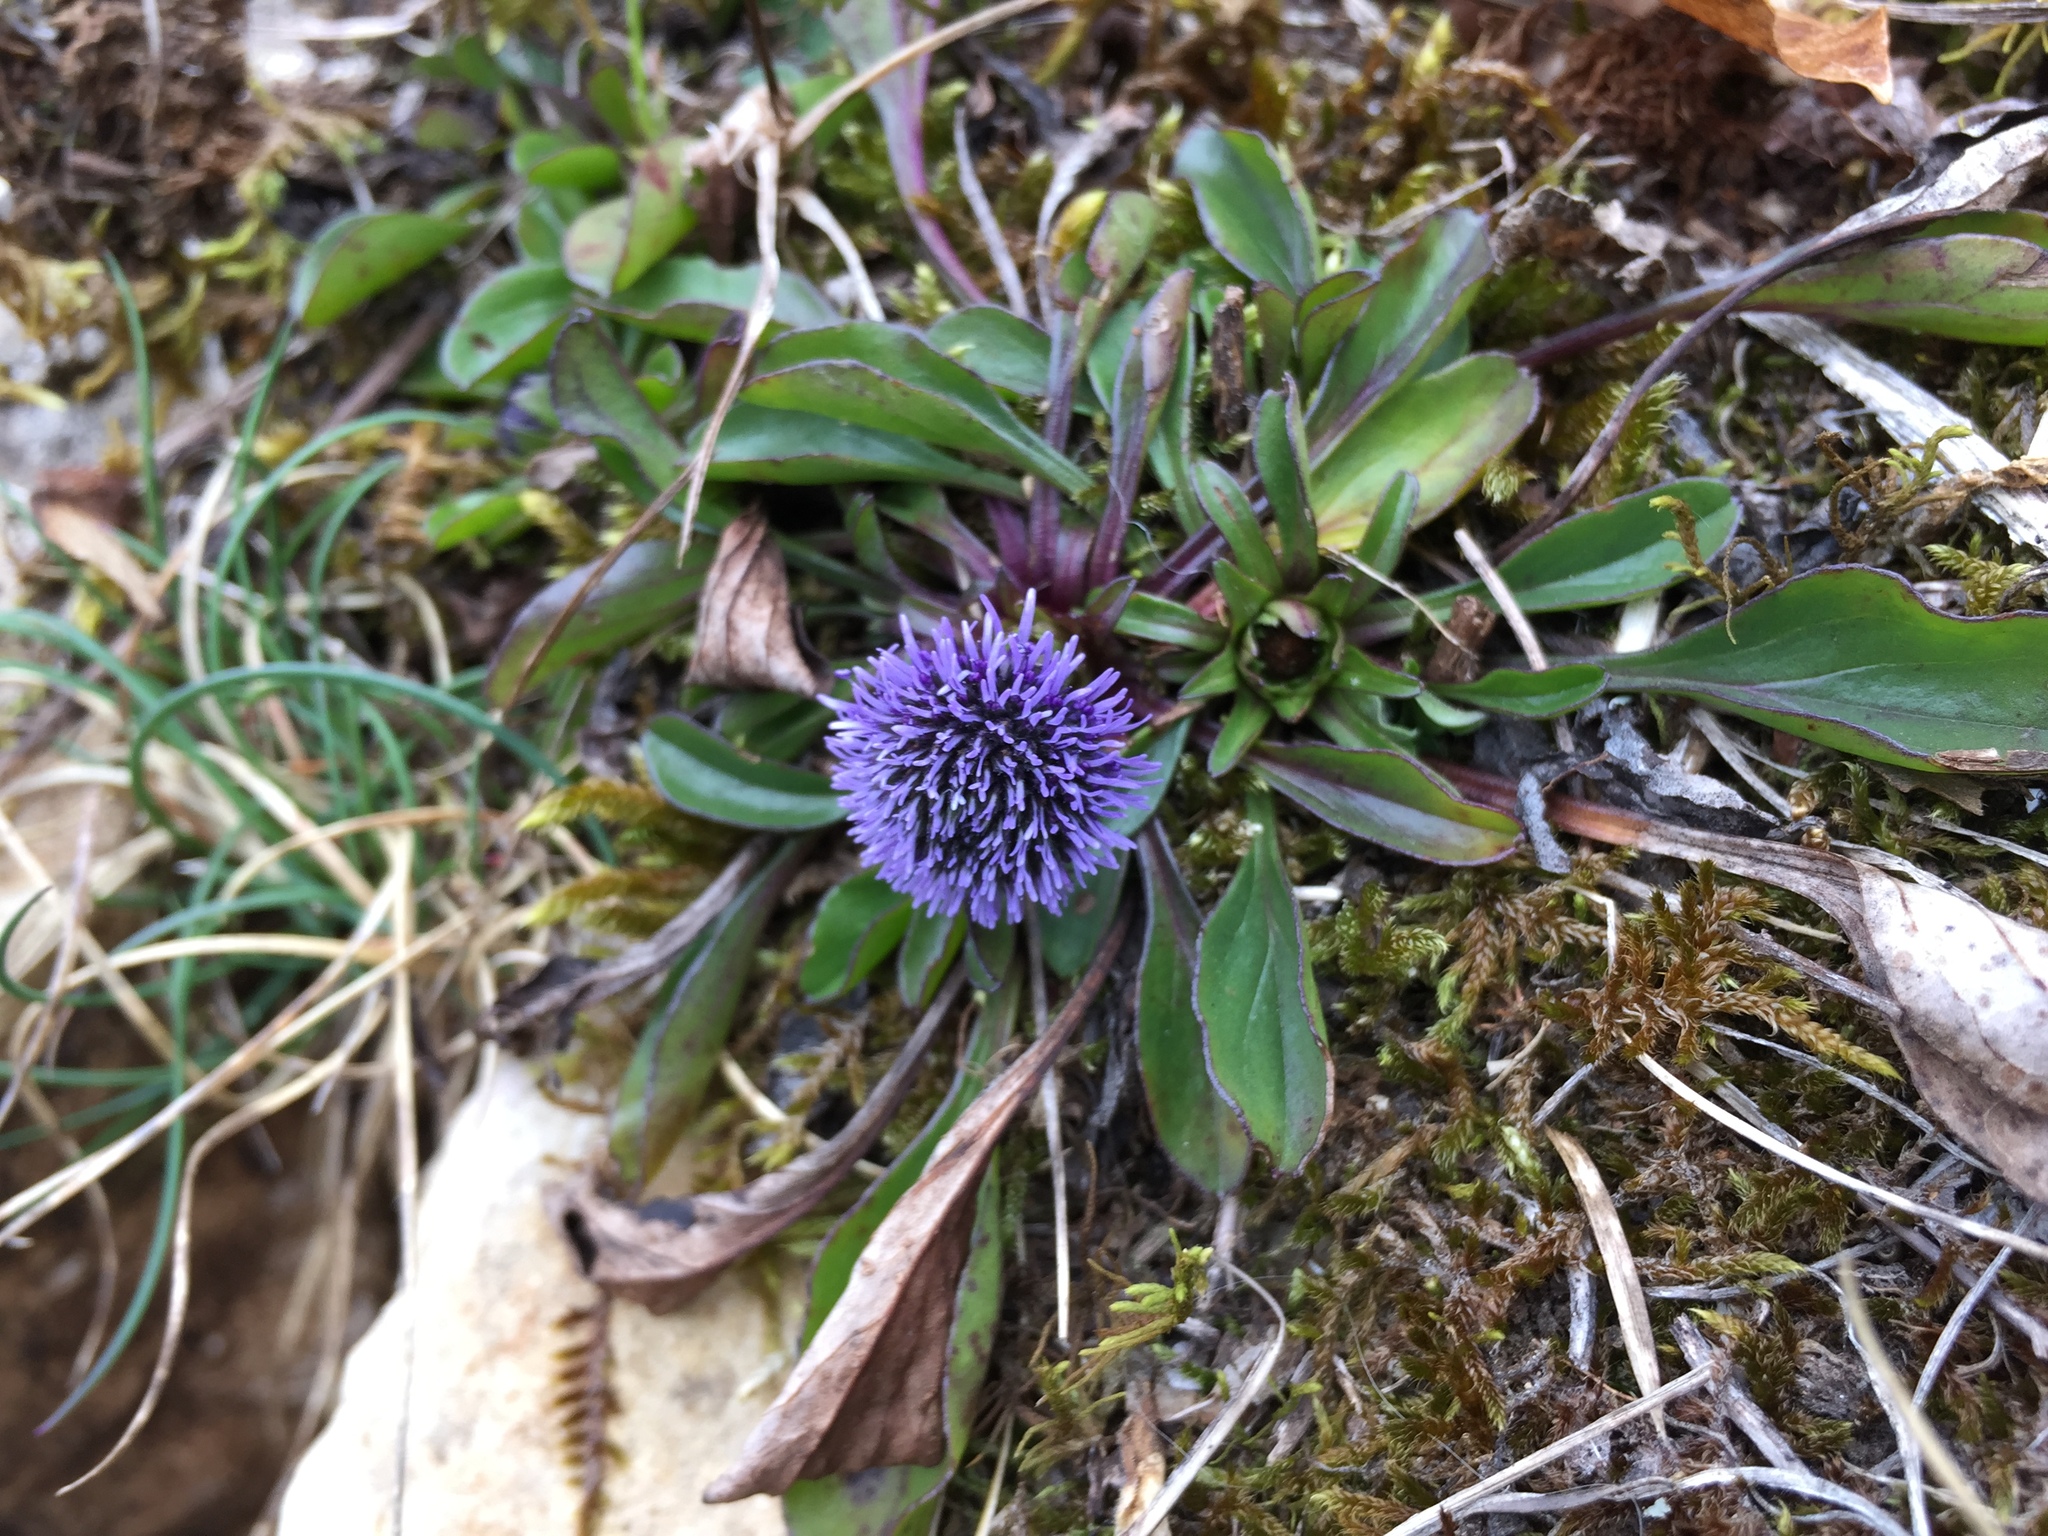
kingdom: Plantae
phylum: Tracheophyta
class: Magnoliopsida
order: Lamiales
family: Plantaginaceae
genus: Globularia
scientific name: Globularia bisnagarica
